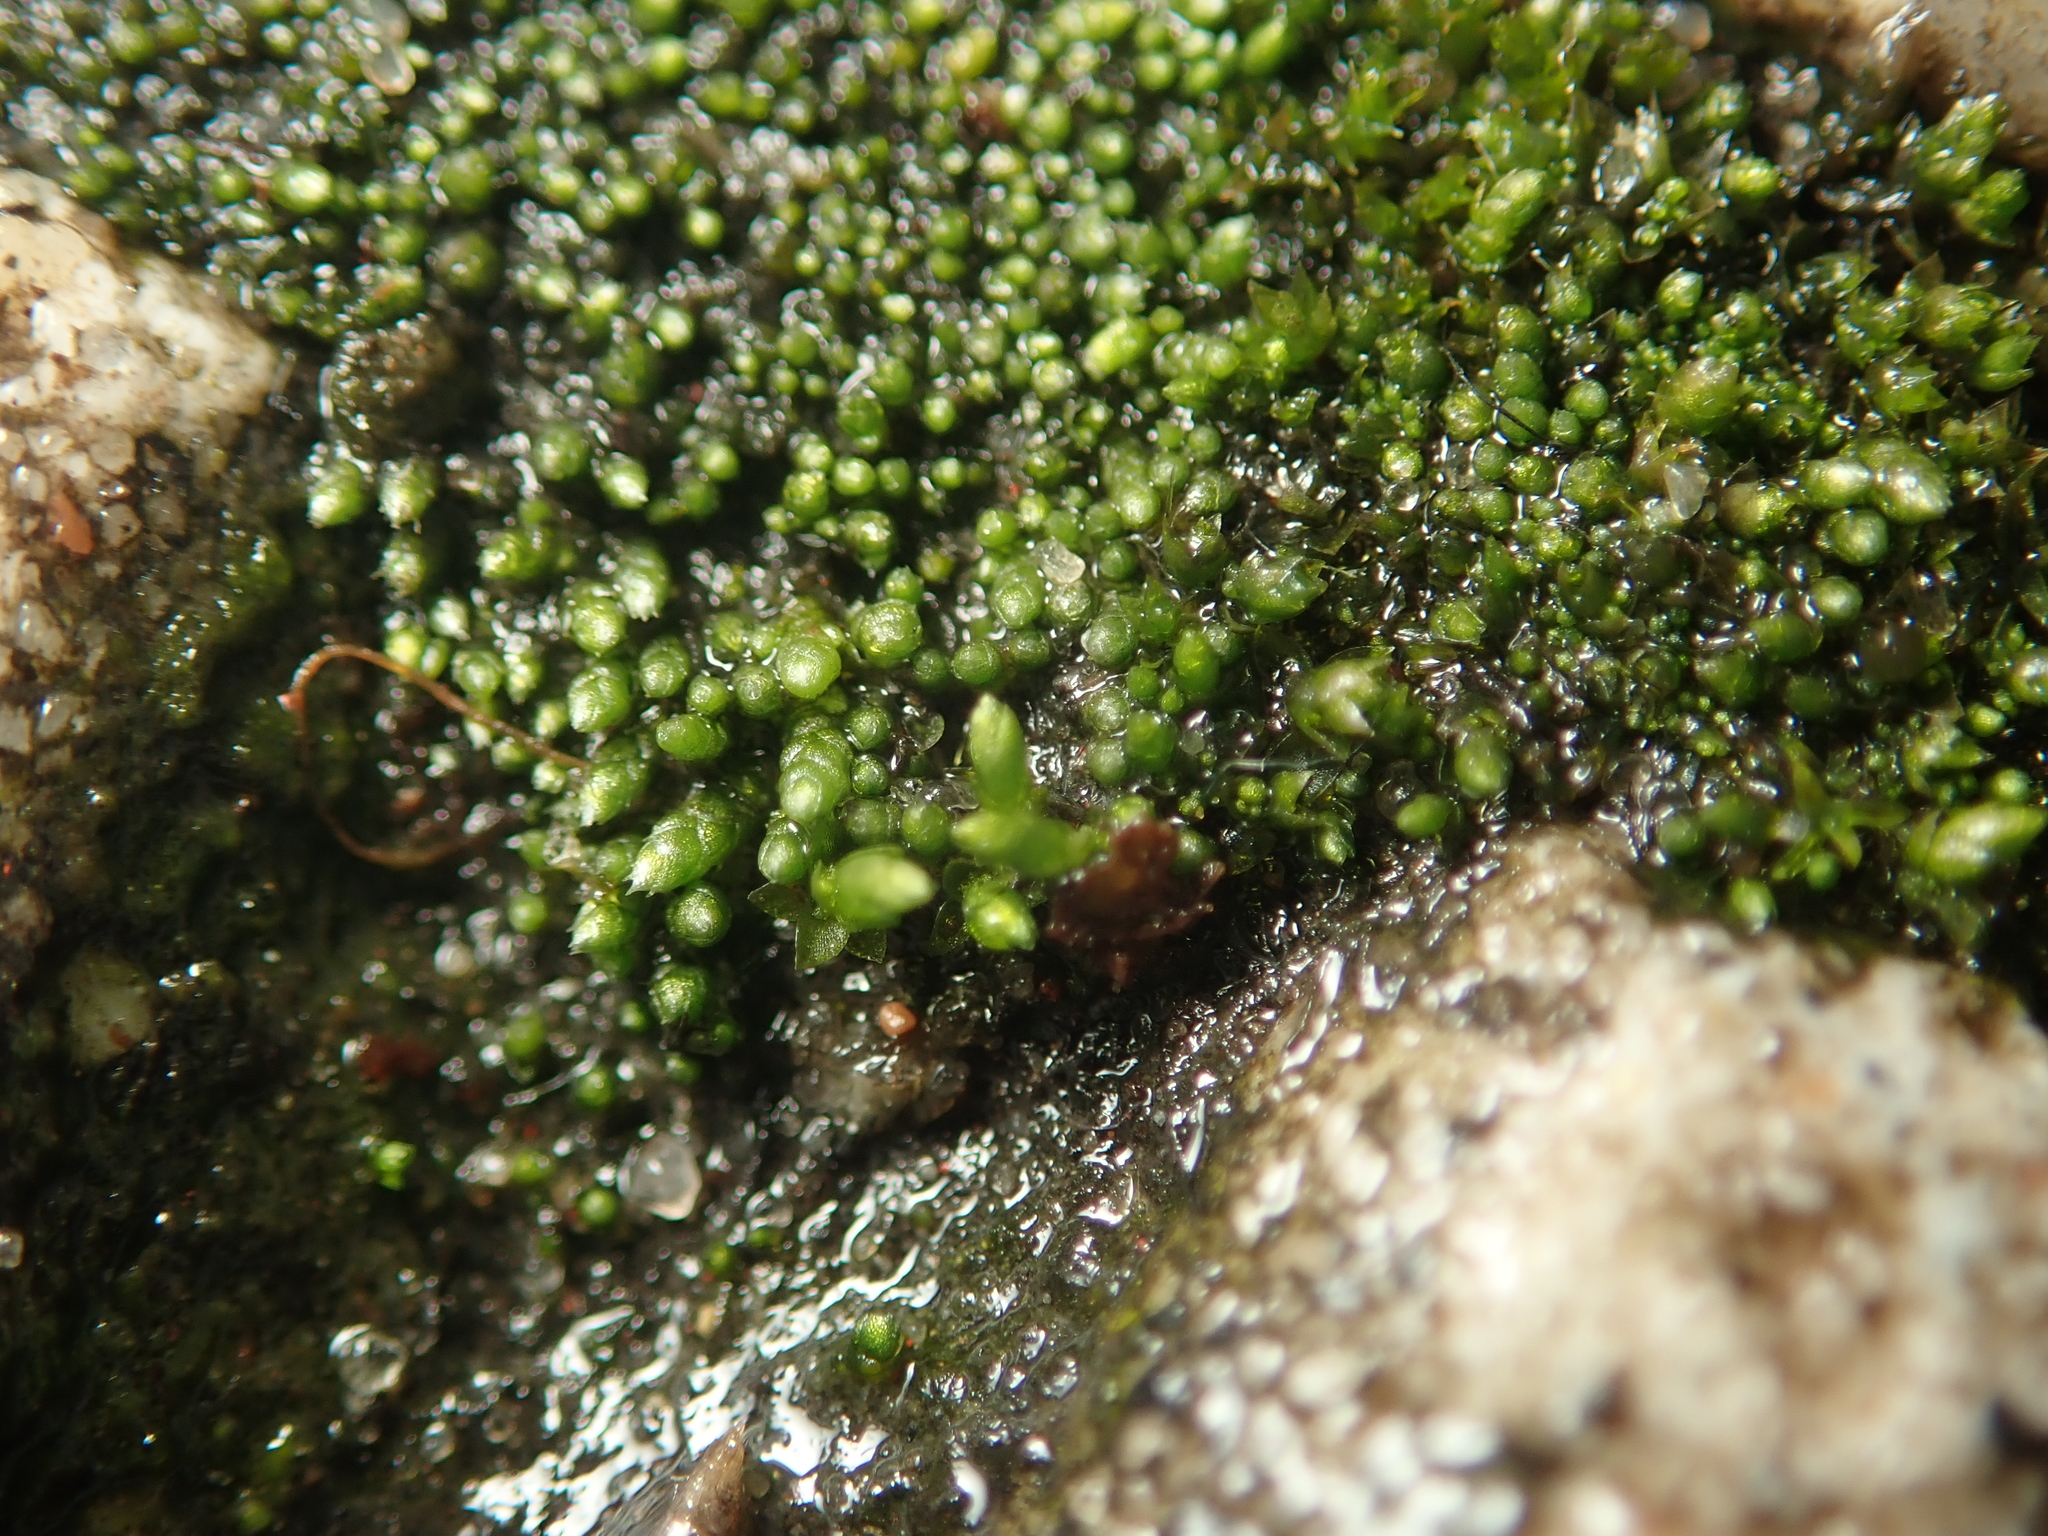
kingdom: Plantae
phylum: Bryophyta
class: Bryopsida
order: Bryales
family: Bryaceae
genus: Bryum
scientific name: Bryum argenteum
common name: Silver-moss
